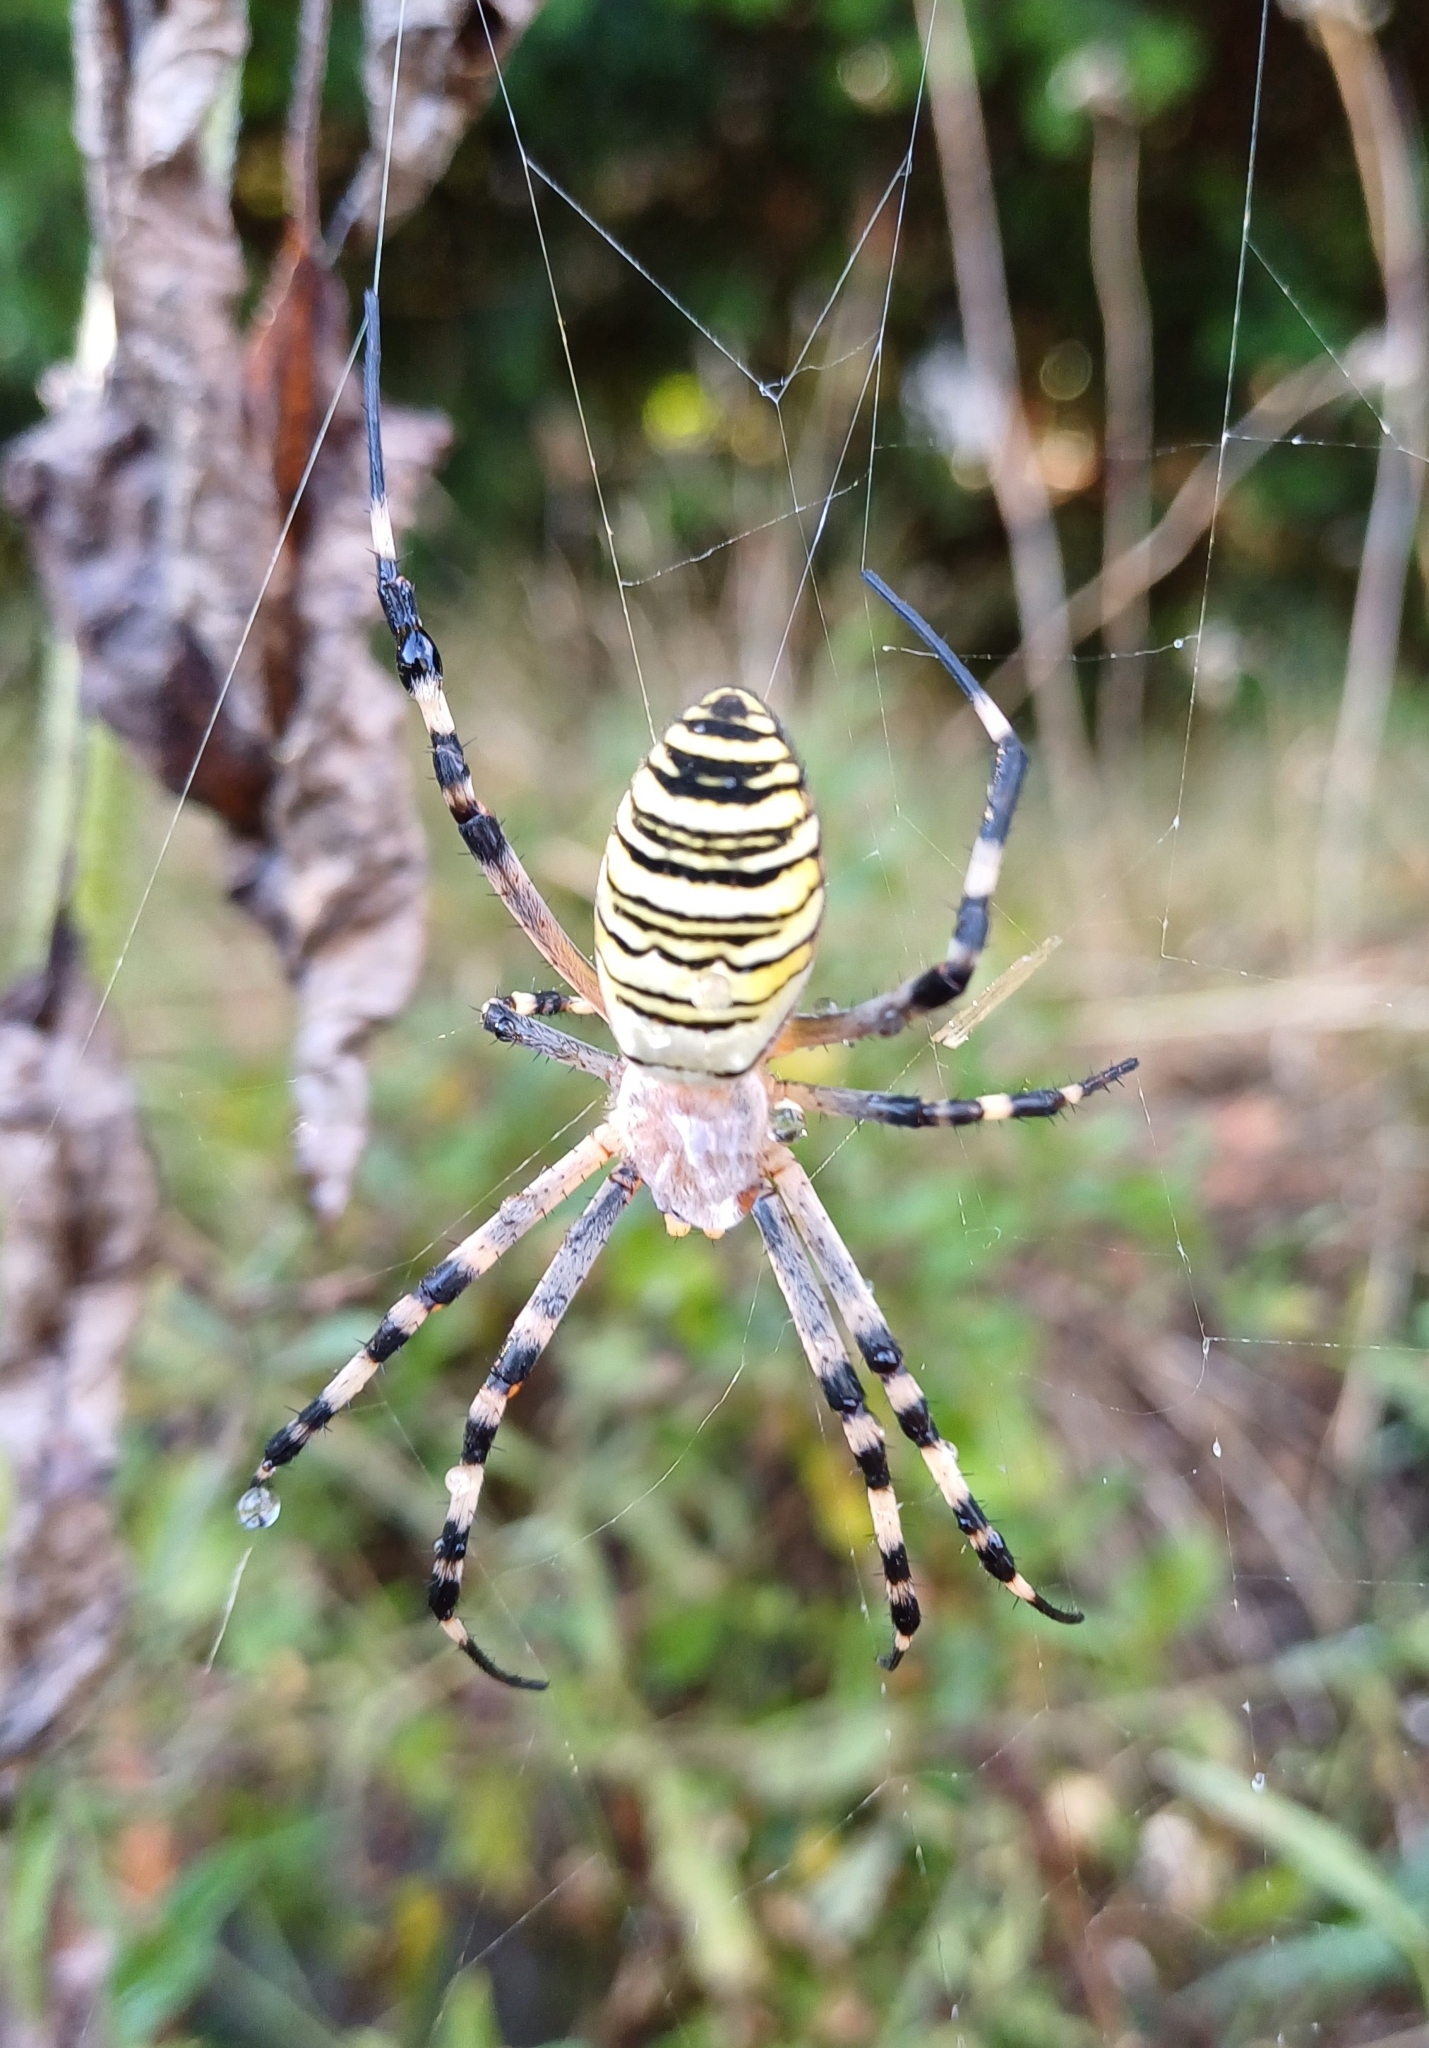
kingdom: Animalia
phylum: Arthropoda
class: Arachnida
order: Araneae
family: Araneidae
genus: Argiope
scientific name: Argiope bruennichi
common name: Wasp spider
